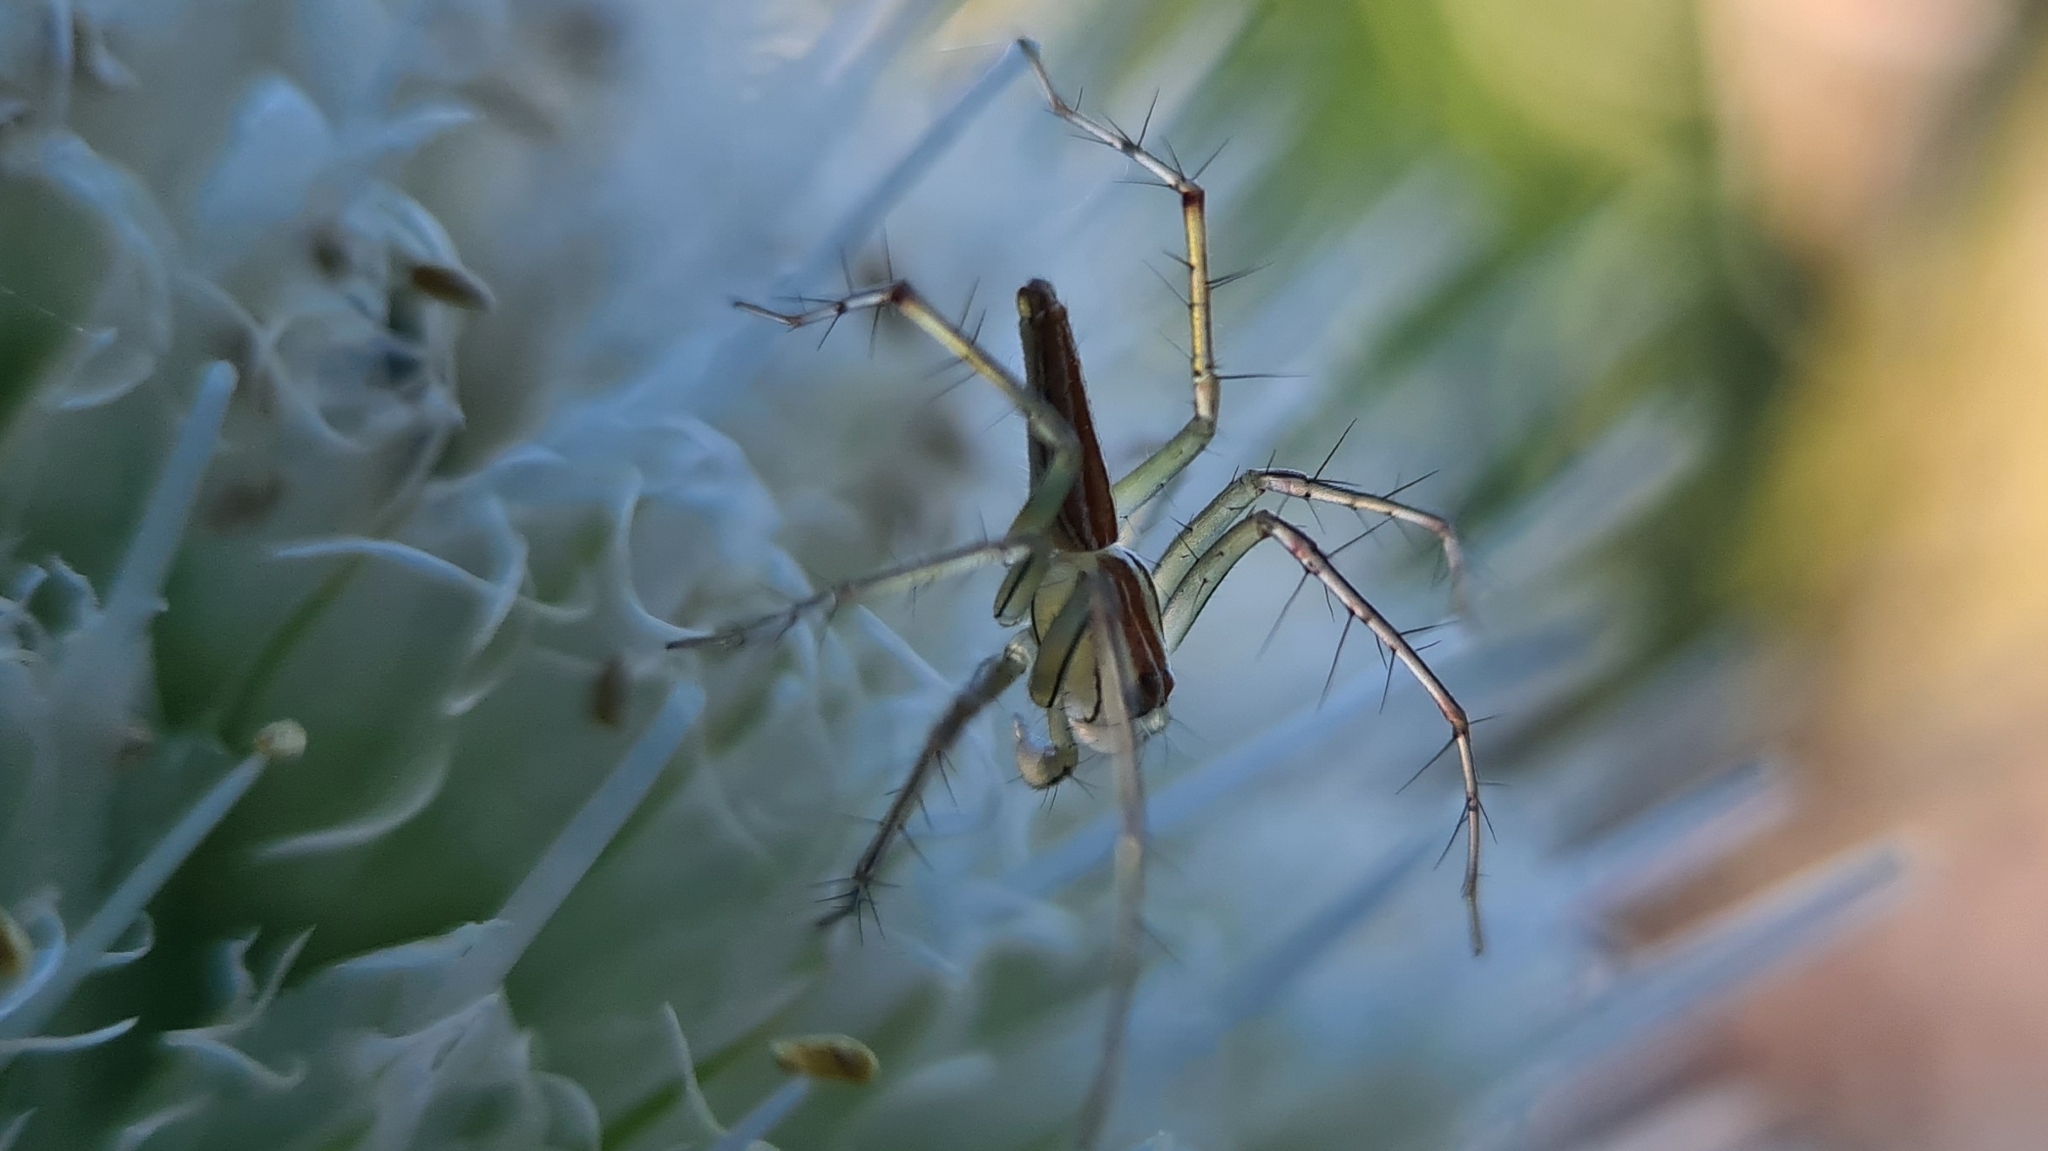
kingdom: Animalia
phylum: Arthropoda
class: Arachnida
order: Araneae
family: Oxyopidae
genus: Oxyopes
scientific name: Oxyopes macilentus
